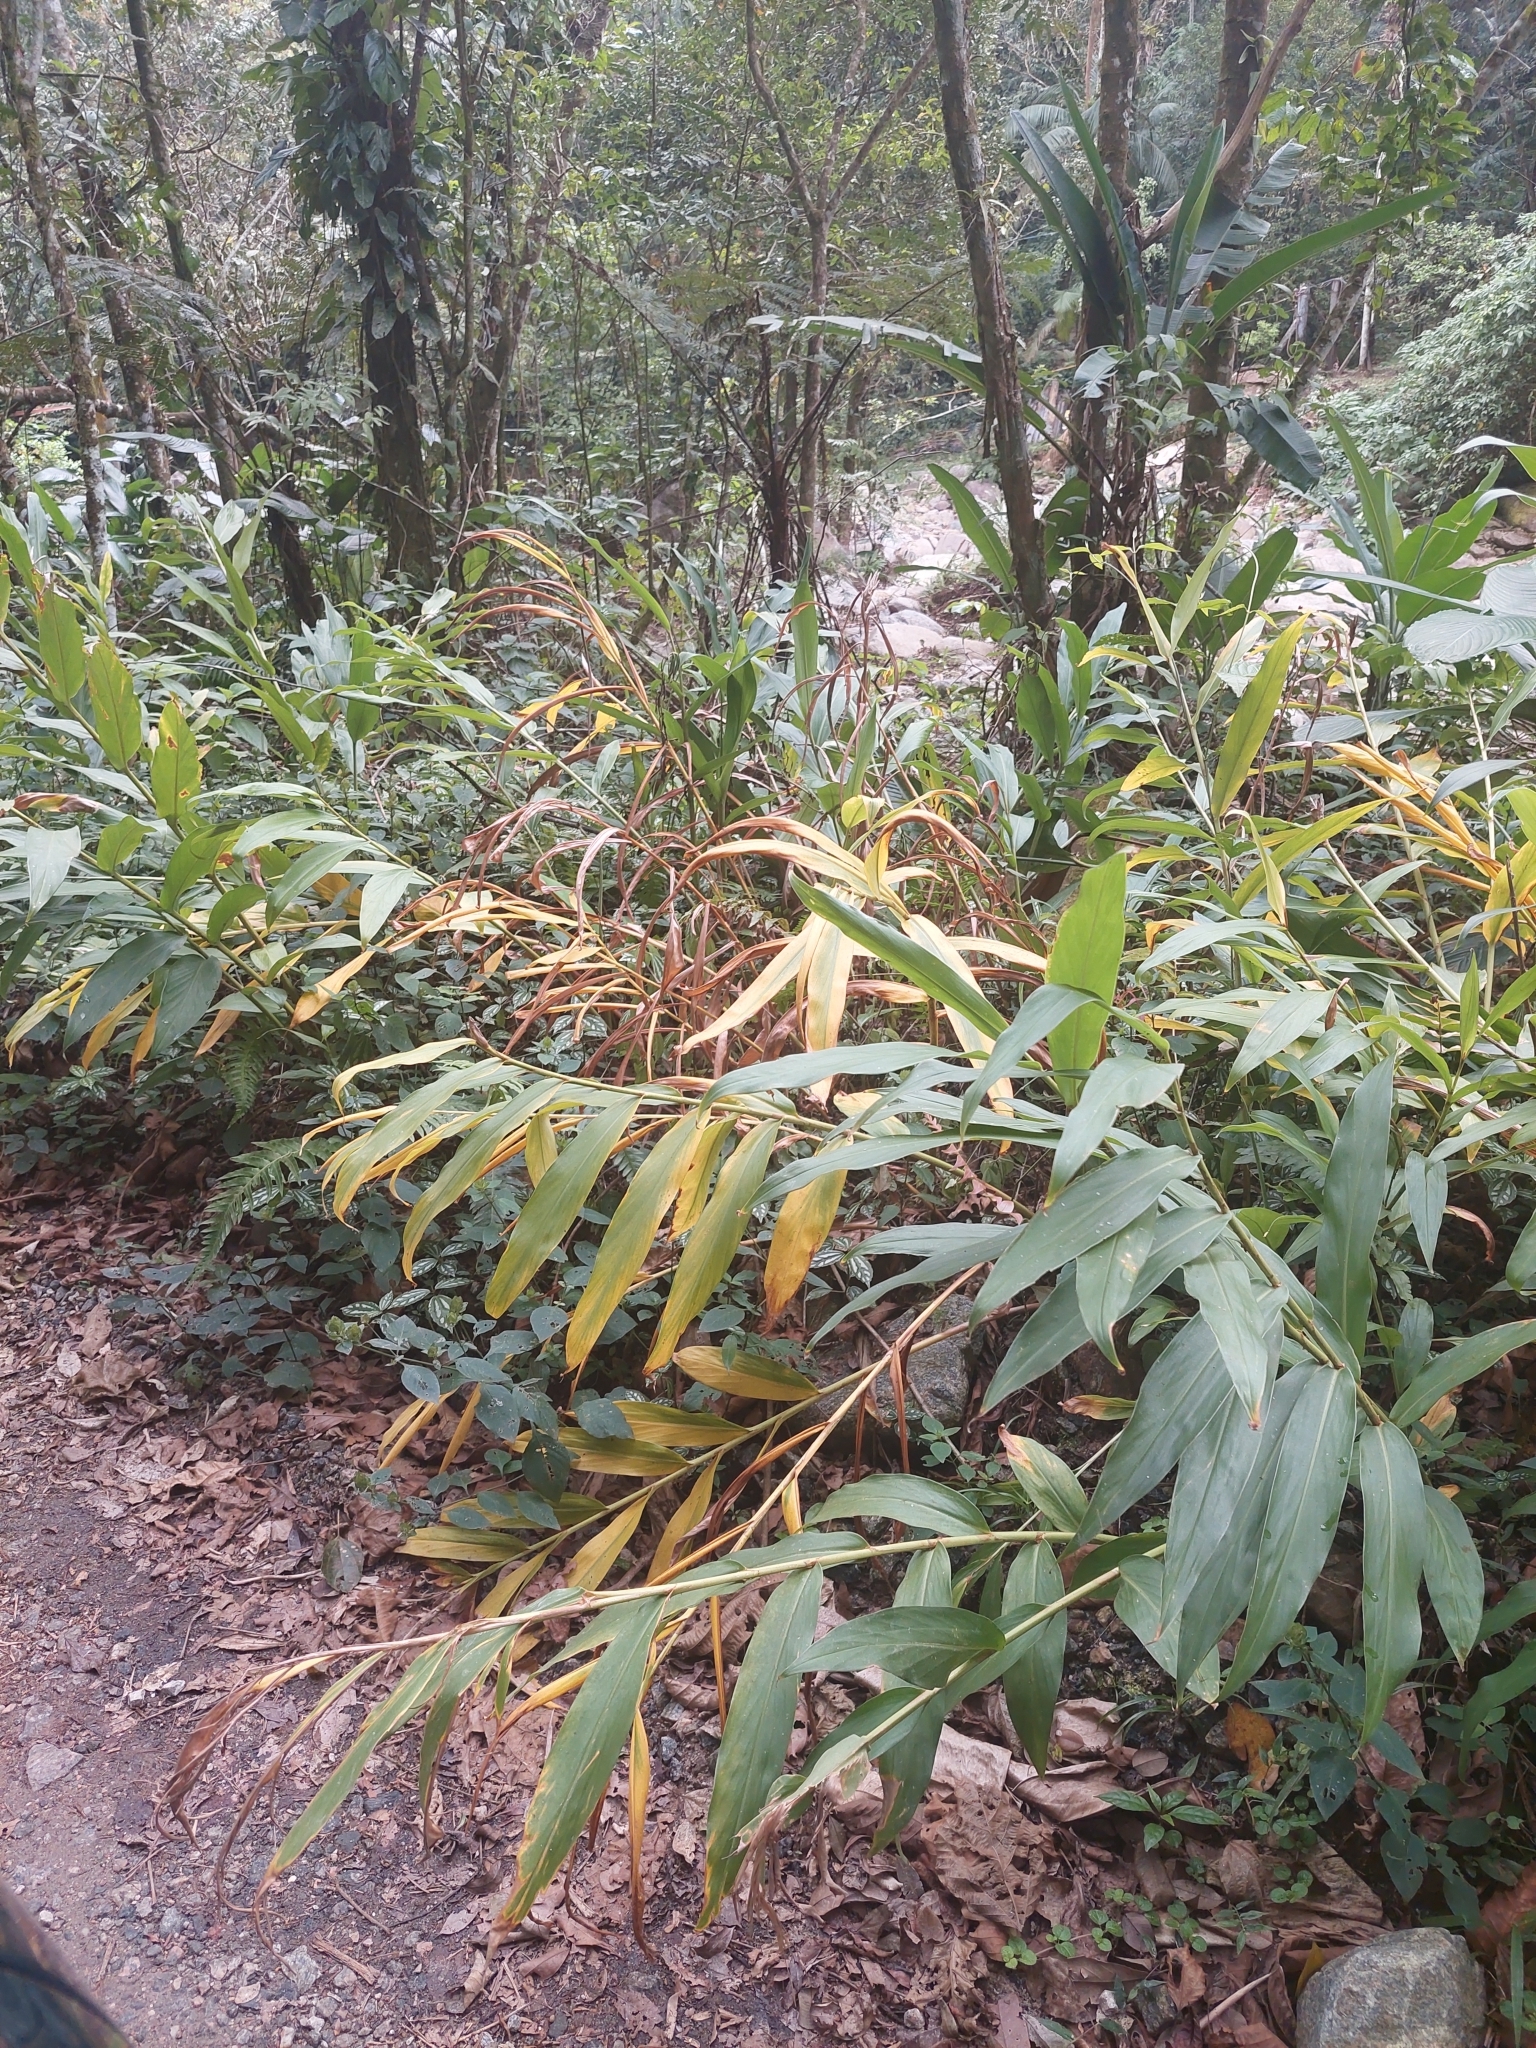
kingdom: Plantae
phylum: Tracheophyta
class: Liliopsida
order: Zingiberales
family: Zingiberaceae
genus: Hedychium
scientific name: Hedychium coronarium
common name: White garland-lily
